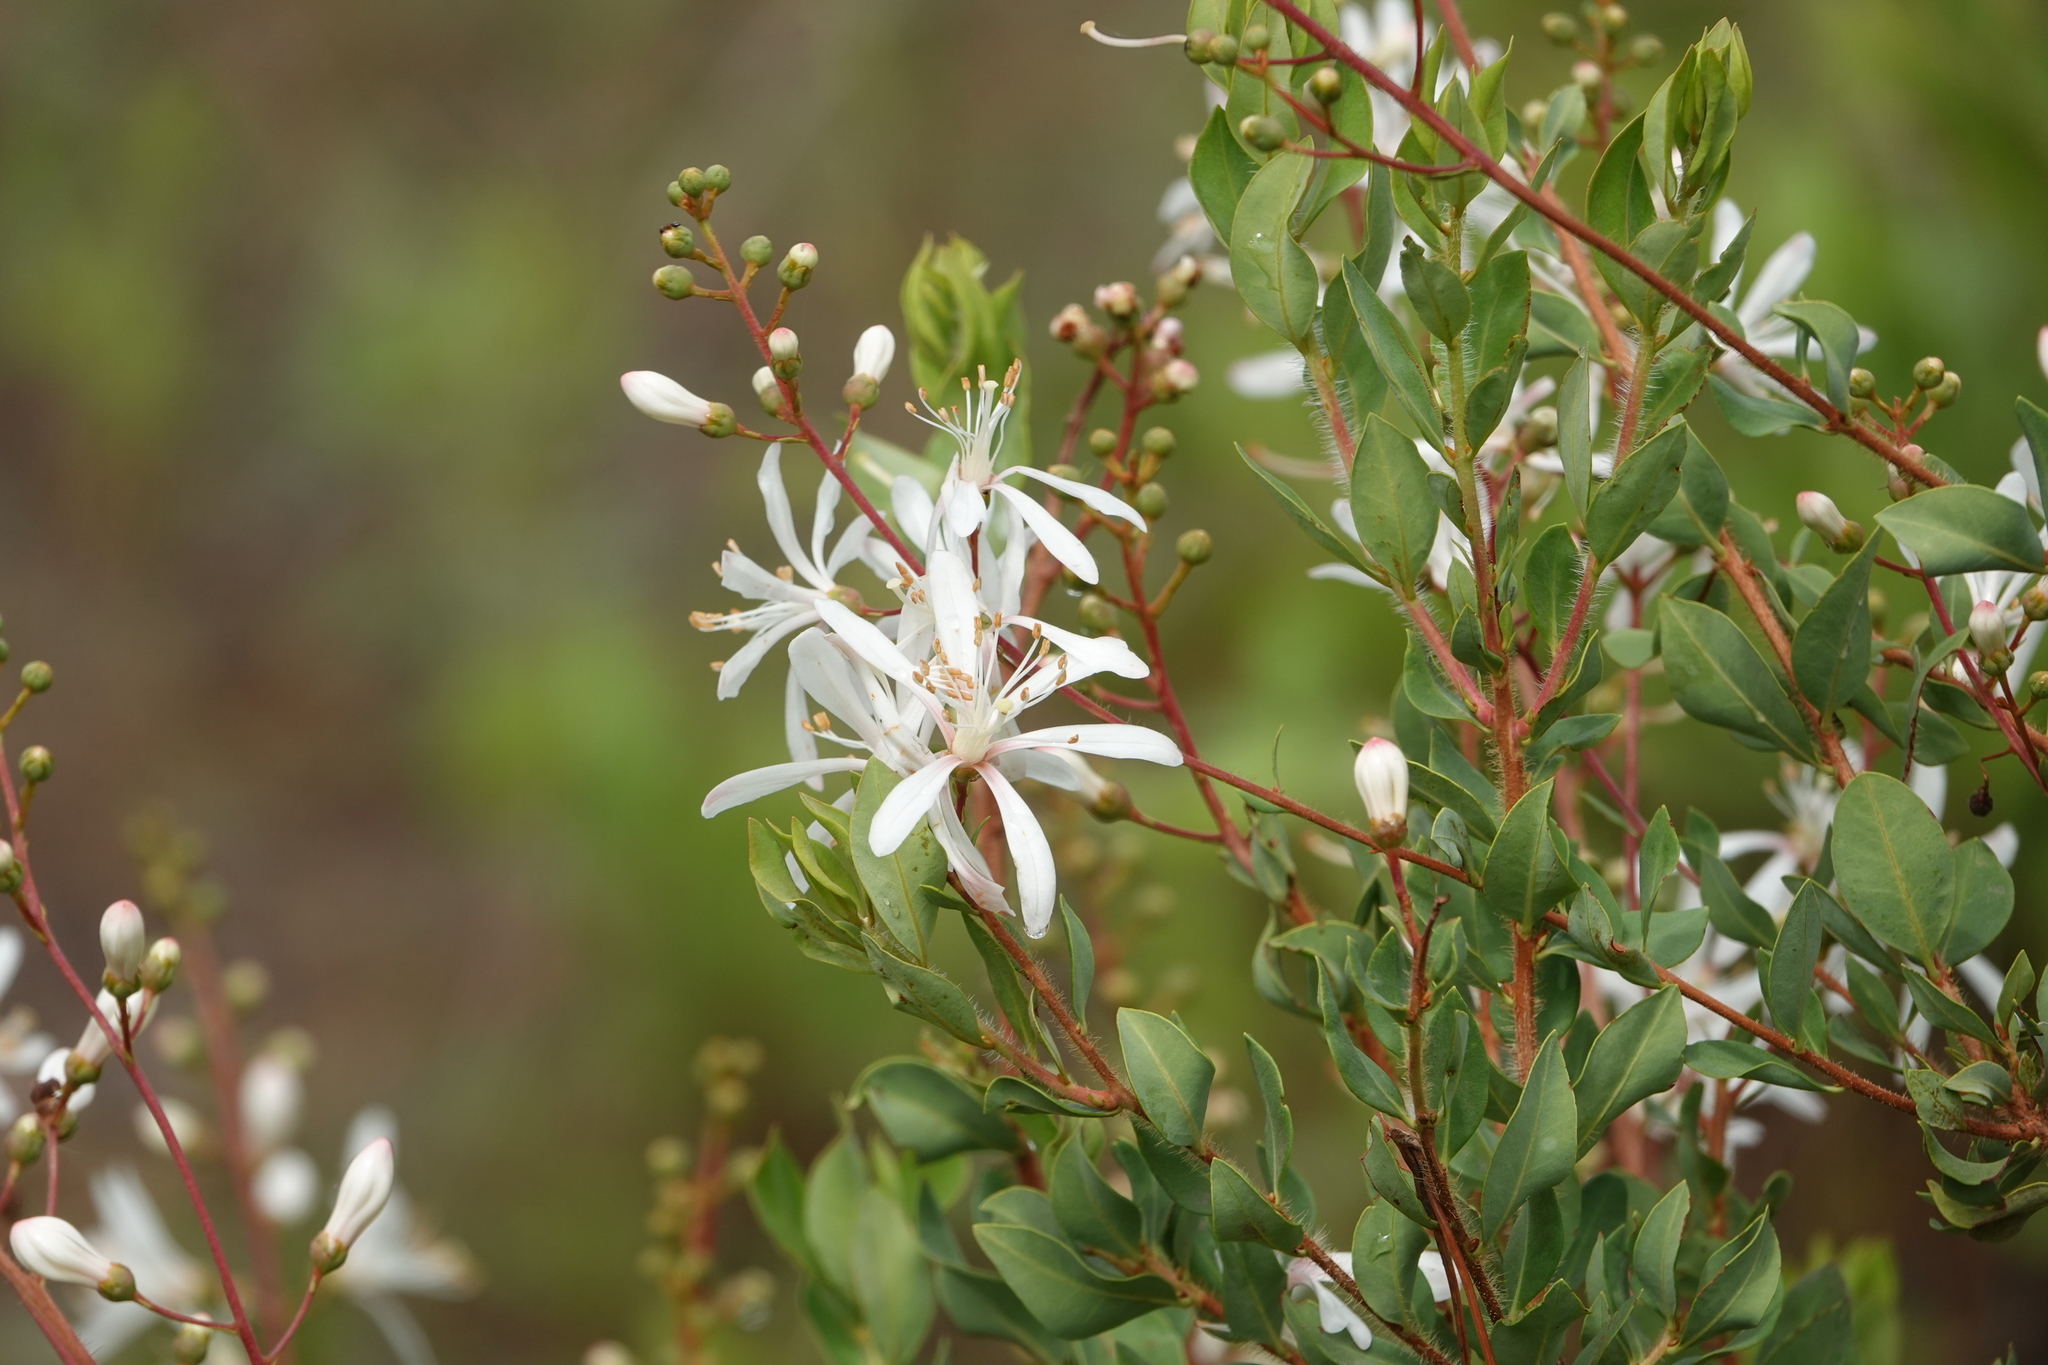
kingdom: Plantae
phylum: Tracheophyta
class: Magnoliopsida
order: Ericales
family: Ericaceae
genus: Bejaria
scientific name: Bejaria racemosa
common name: Tarflower
